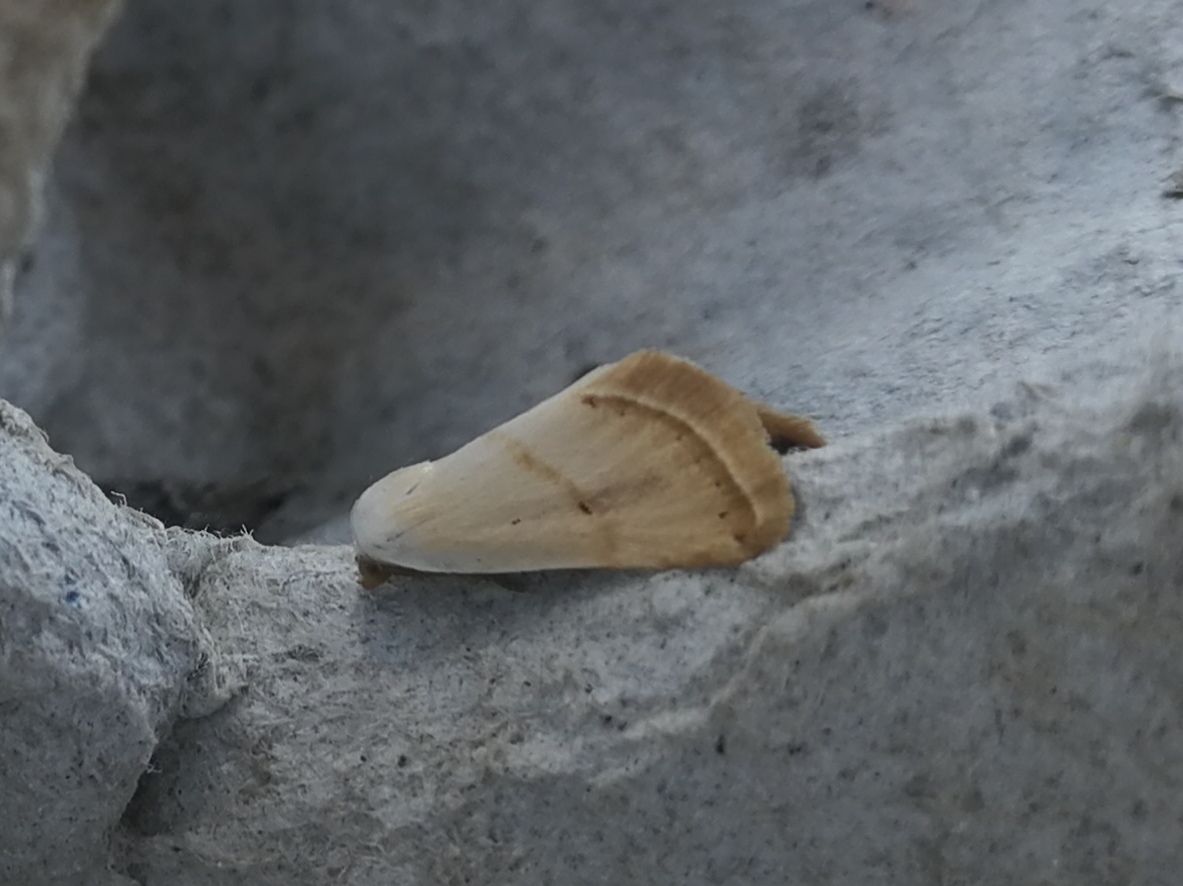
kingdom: Animalia
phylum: Arthropoda
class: Insecta
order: Lepidoptera
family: Noctuidae
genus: Eublemma
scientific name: Eublemma pura
